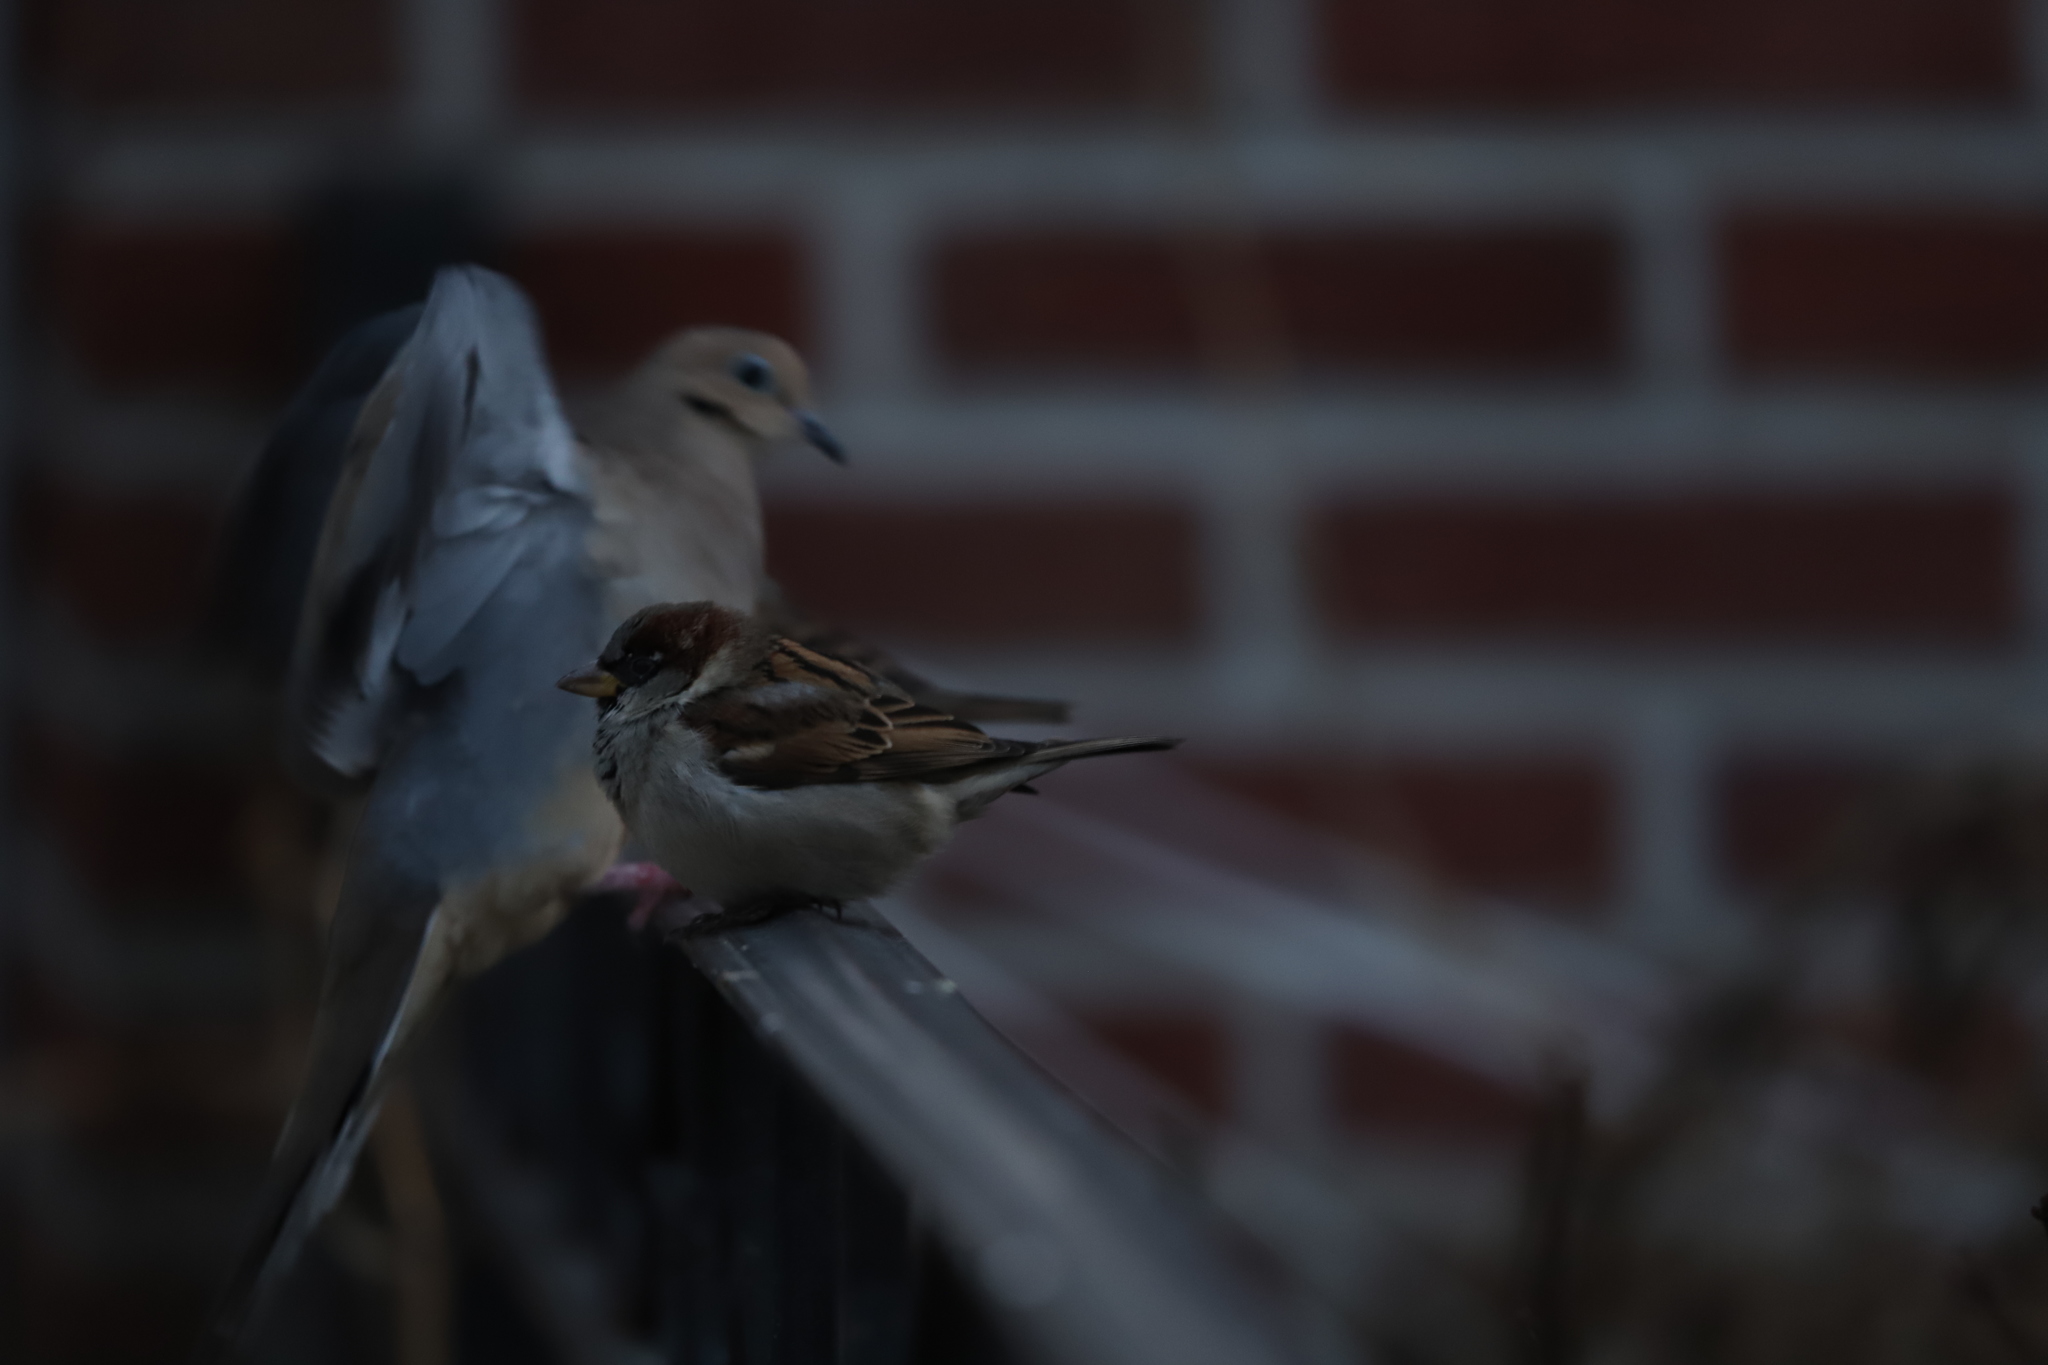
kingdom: Animalia
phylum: Chordata
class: Aves
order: Passeriformes
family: Passeridae
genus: Passer
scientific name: Passer domesticus
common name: House sparrow
